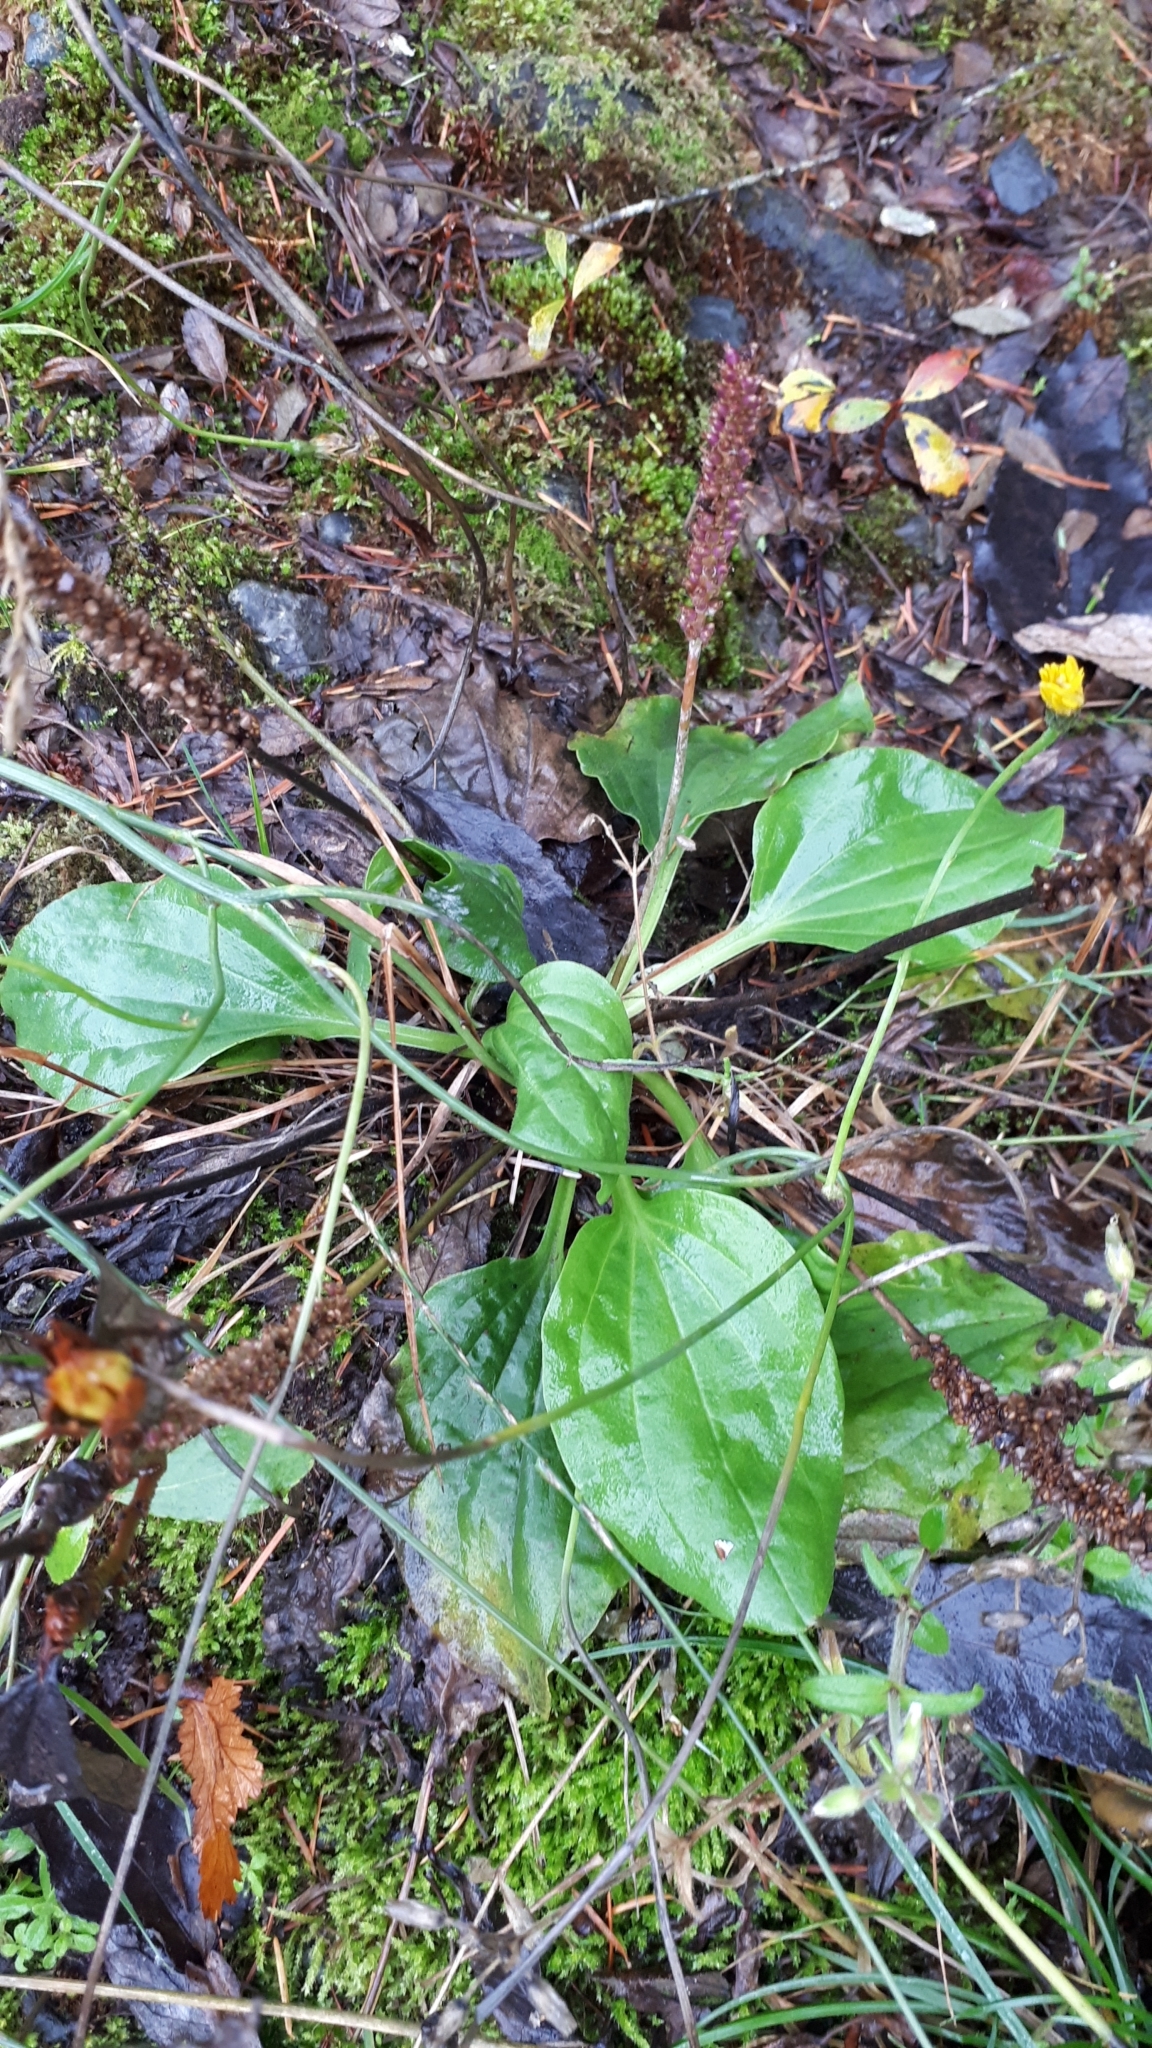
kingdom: Plantae
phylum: Tracheophyta
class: Magnoliopsida
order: Lamiales
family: Plantaginaceae
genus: Plantago
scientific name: Plantago major
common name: Common plantain
